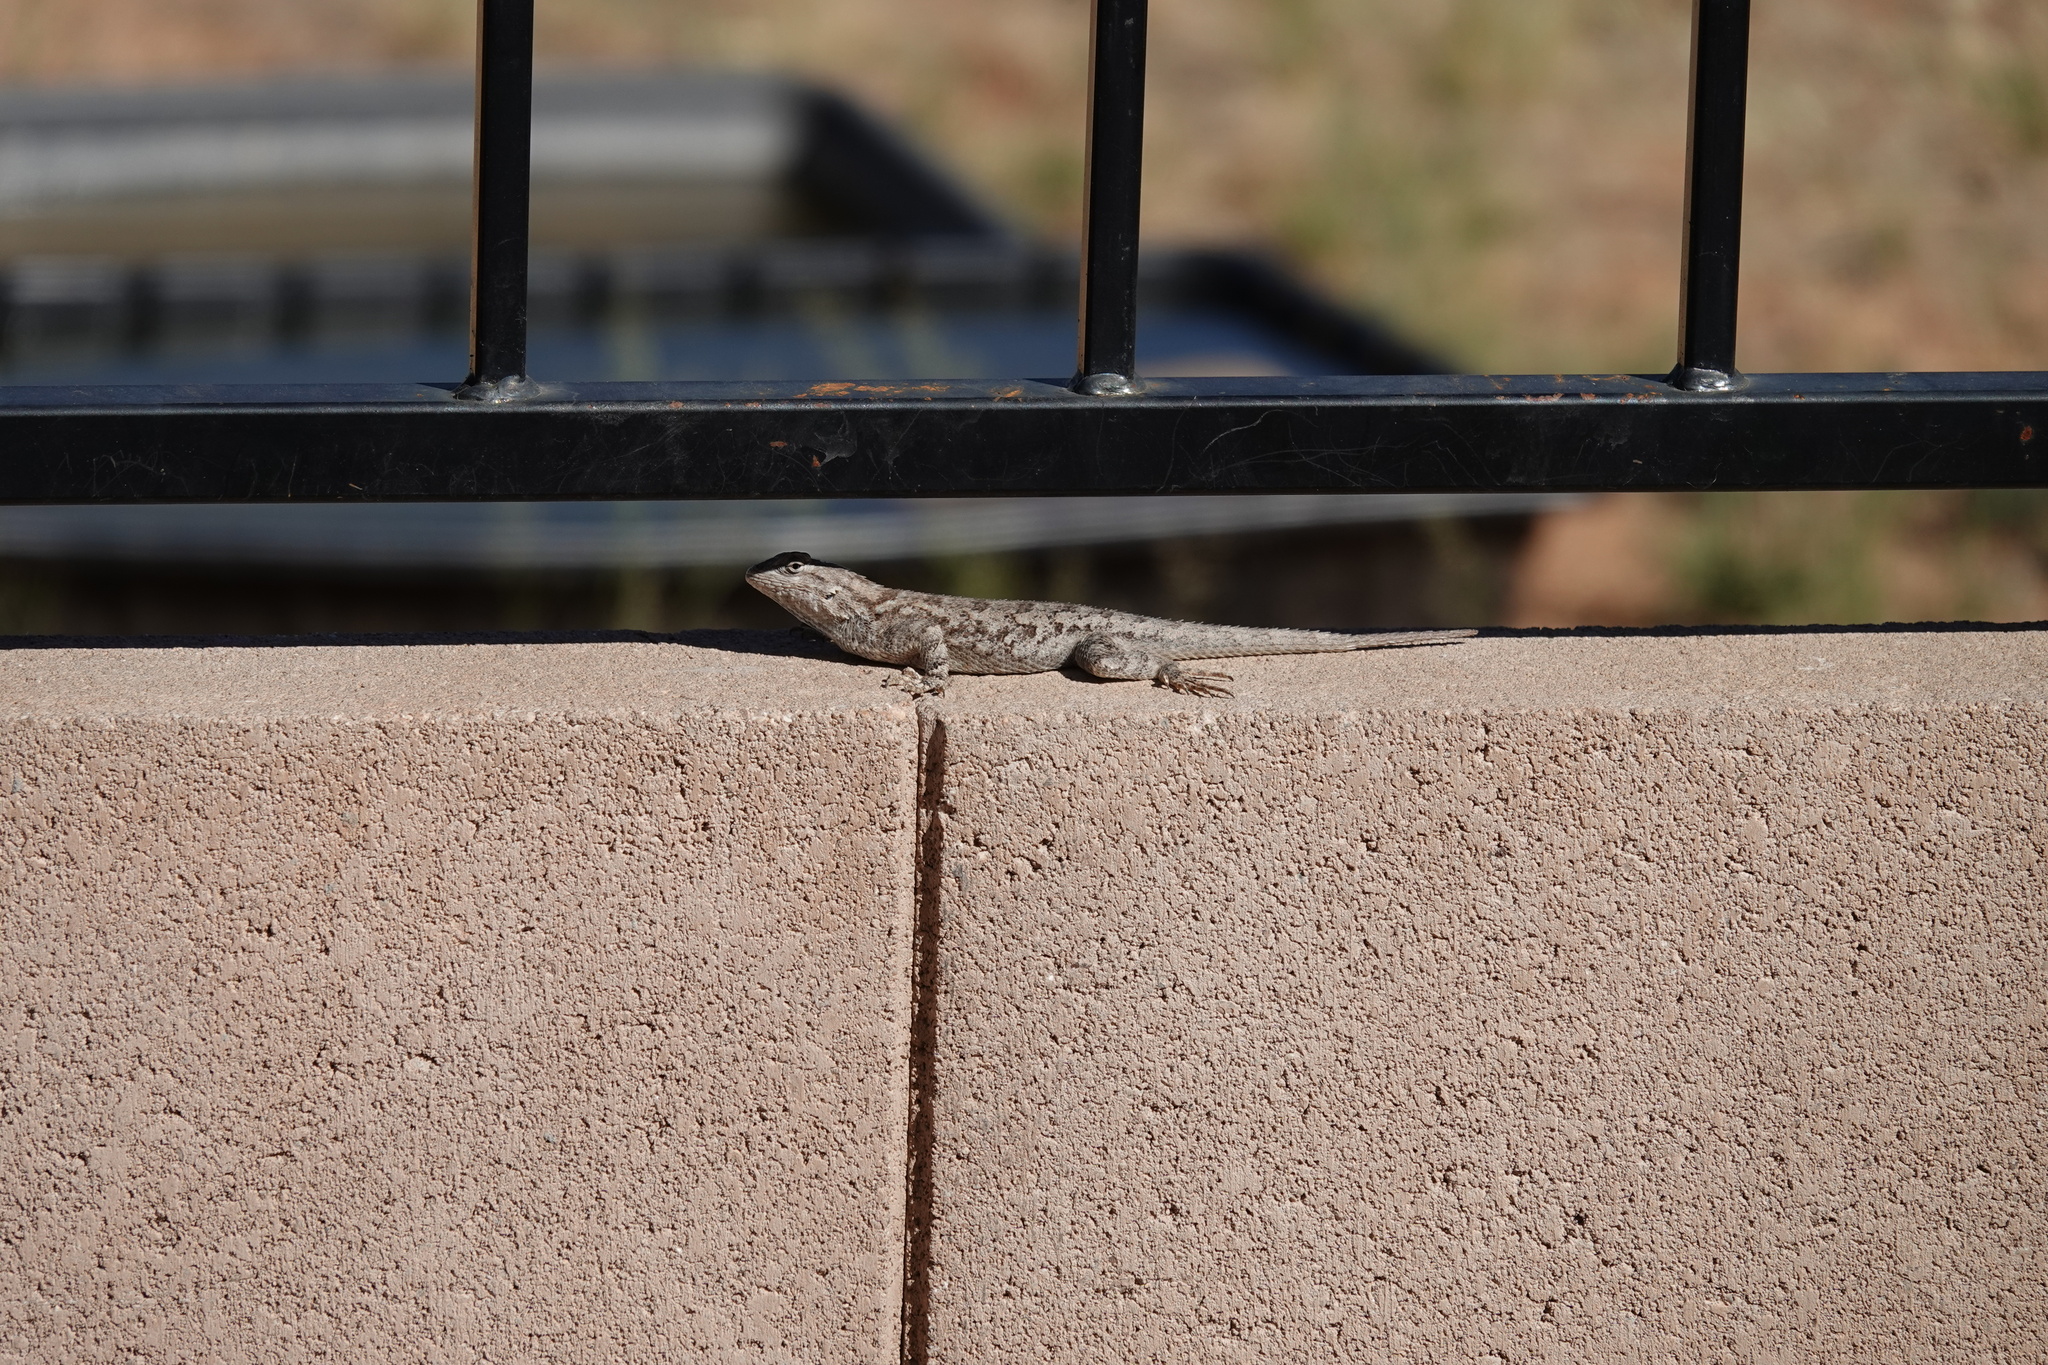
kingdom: Animalia
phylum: Chordata
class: Squamata
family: Phrynosomatidae
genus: Sceloporus
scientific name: Sceloporus clarkii
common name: Clark's spiny lizard
